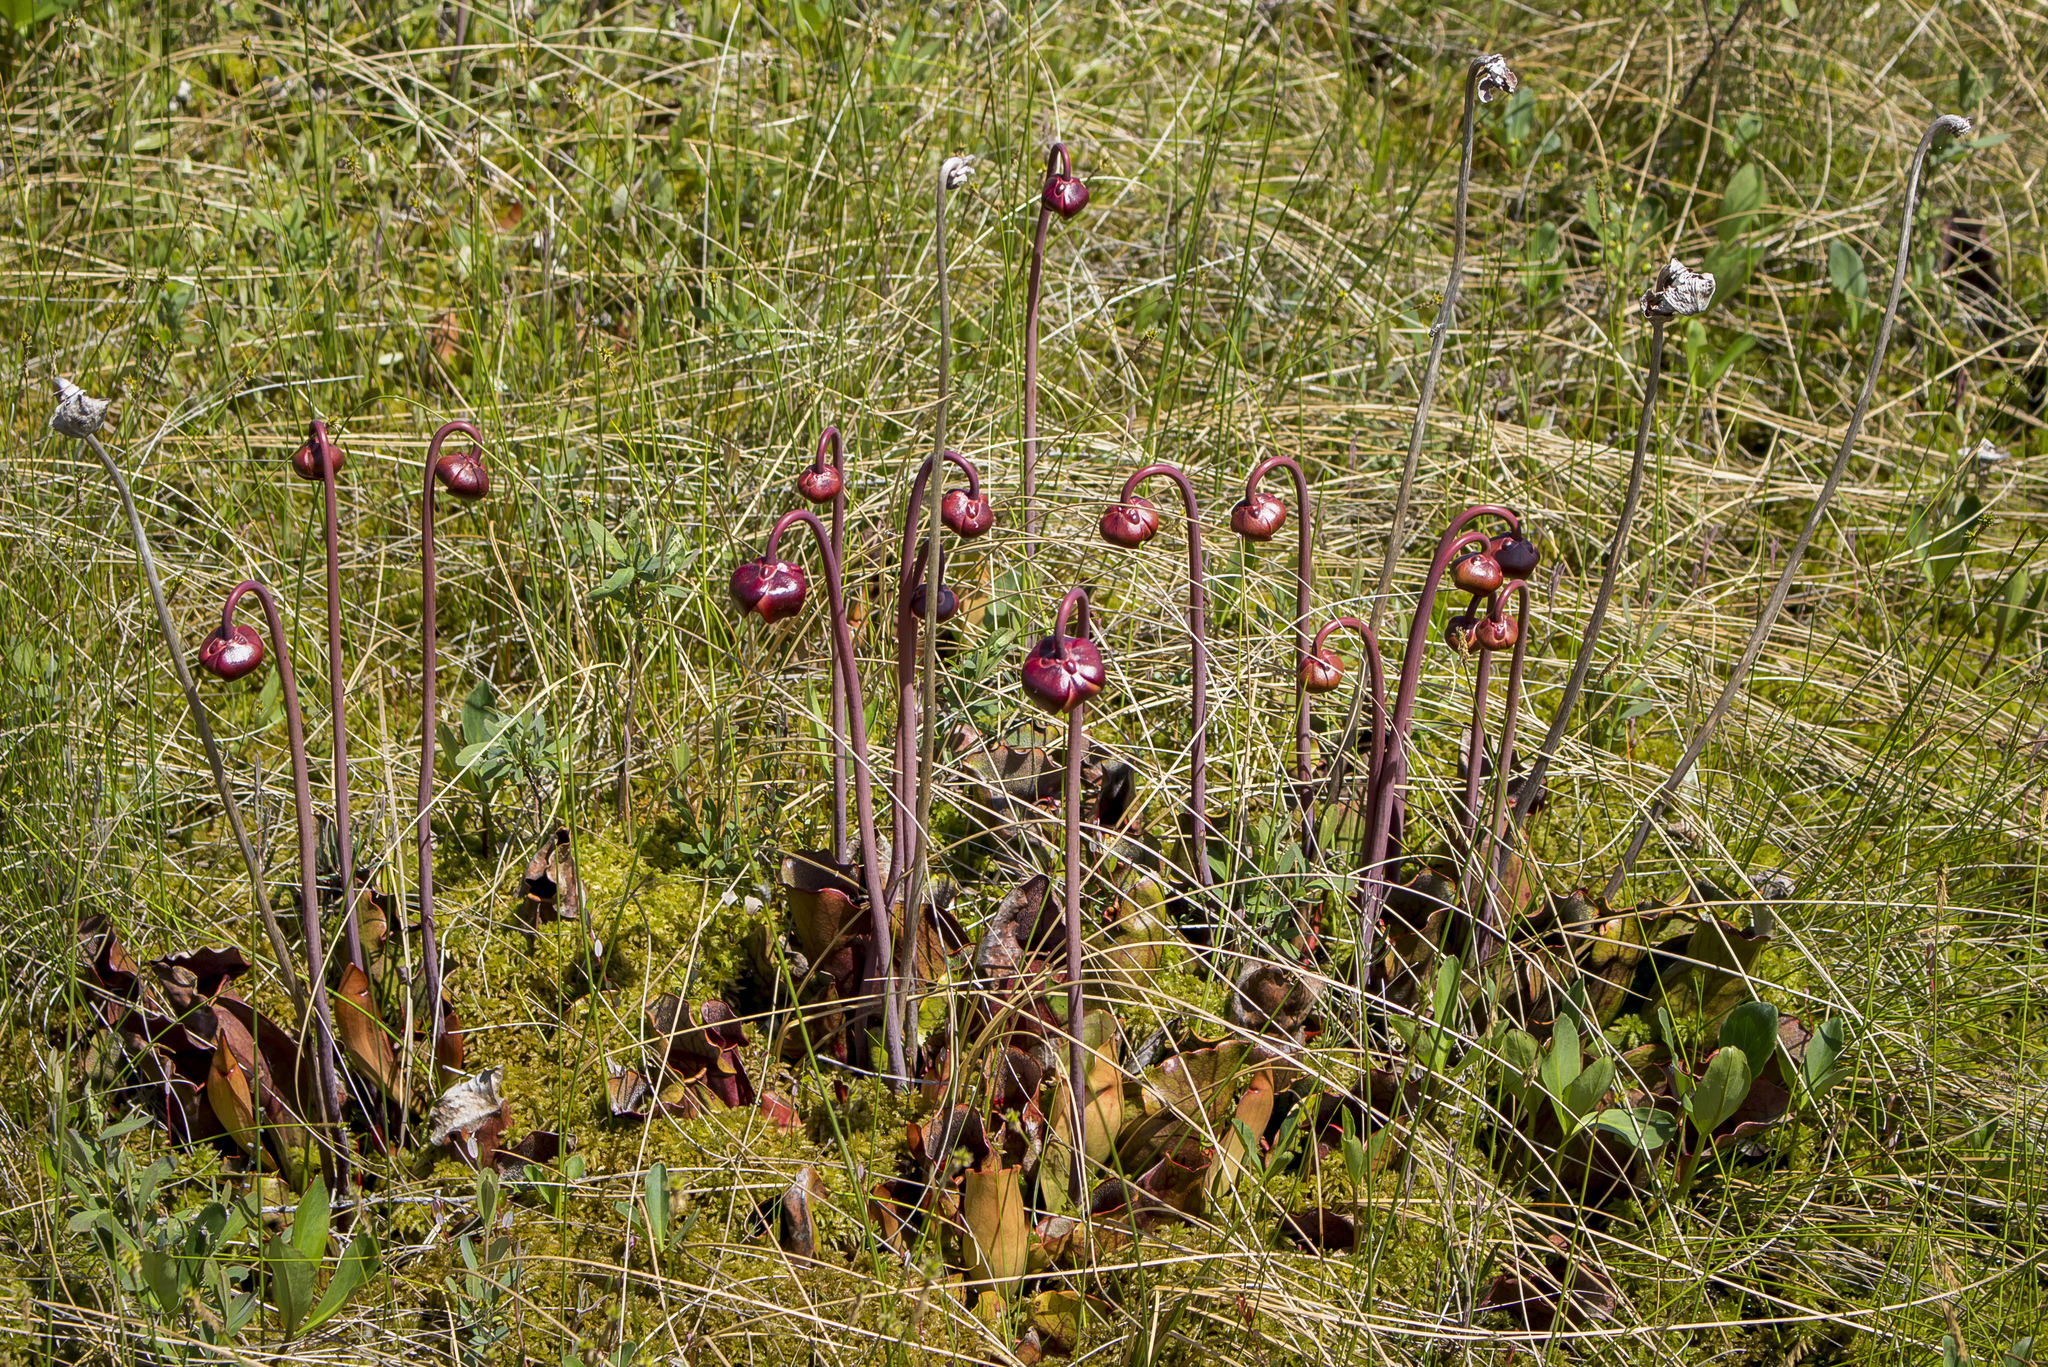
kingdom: Plantae
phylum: Tracheophyta
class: Magnoliopsida
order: Ericales
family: Sarraceniaceae
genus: Sarracenia
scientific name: Sarracenia purpurea
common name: Pitcherplant
